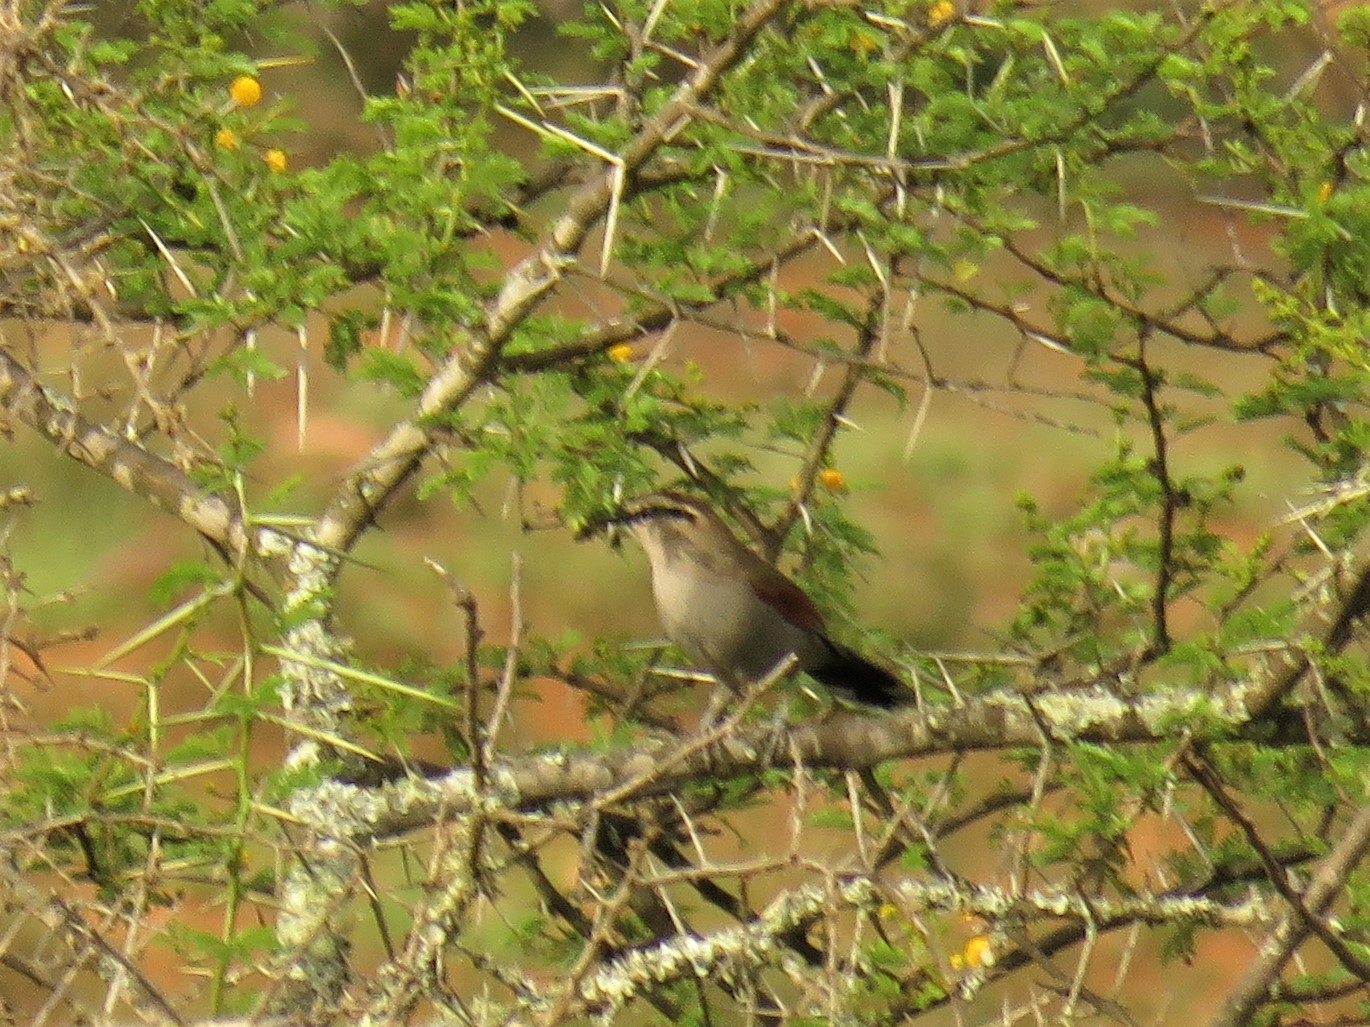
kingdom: Animalia
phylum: Chordata
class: Aves
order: Passeriformes
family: Malaconotidae
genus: Tchagra
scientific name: Tchagra tchagra
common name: Southern tchagra
